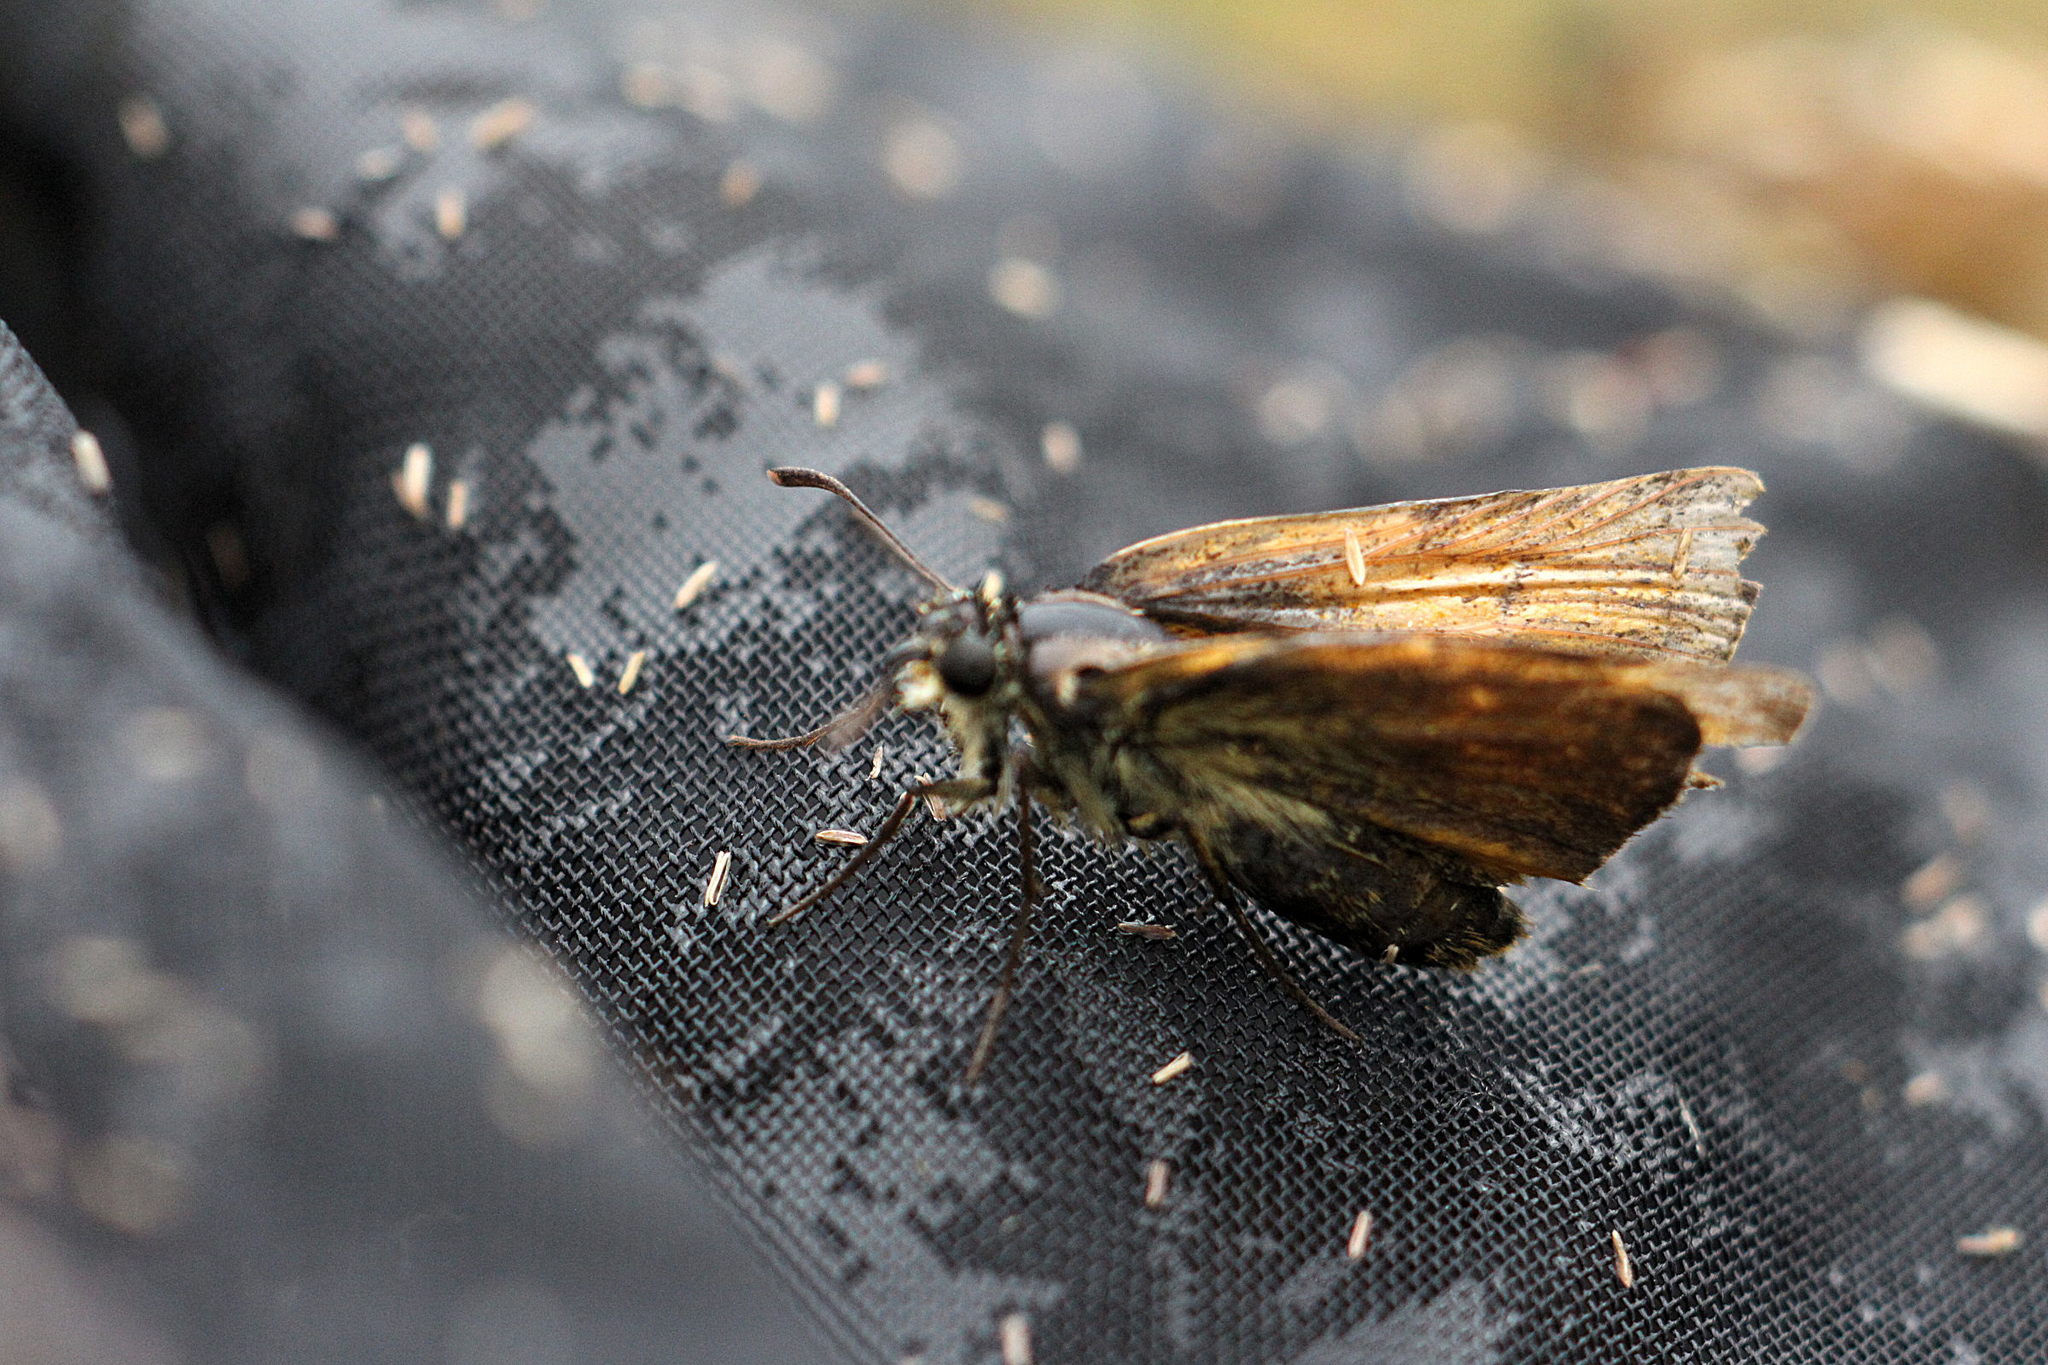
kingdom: Animalia
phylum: Arthropoda
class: Insecta
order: Lepidoptera
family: Hesperiidae
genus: Thymelicus
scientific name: Thymelicus sylvestris
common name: Small skipper
